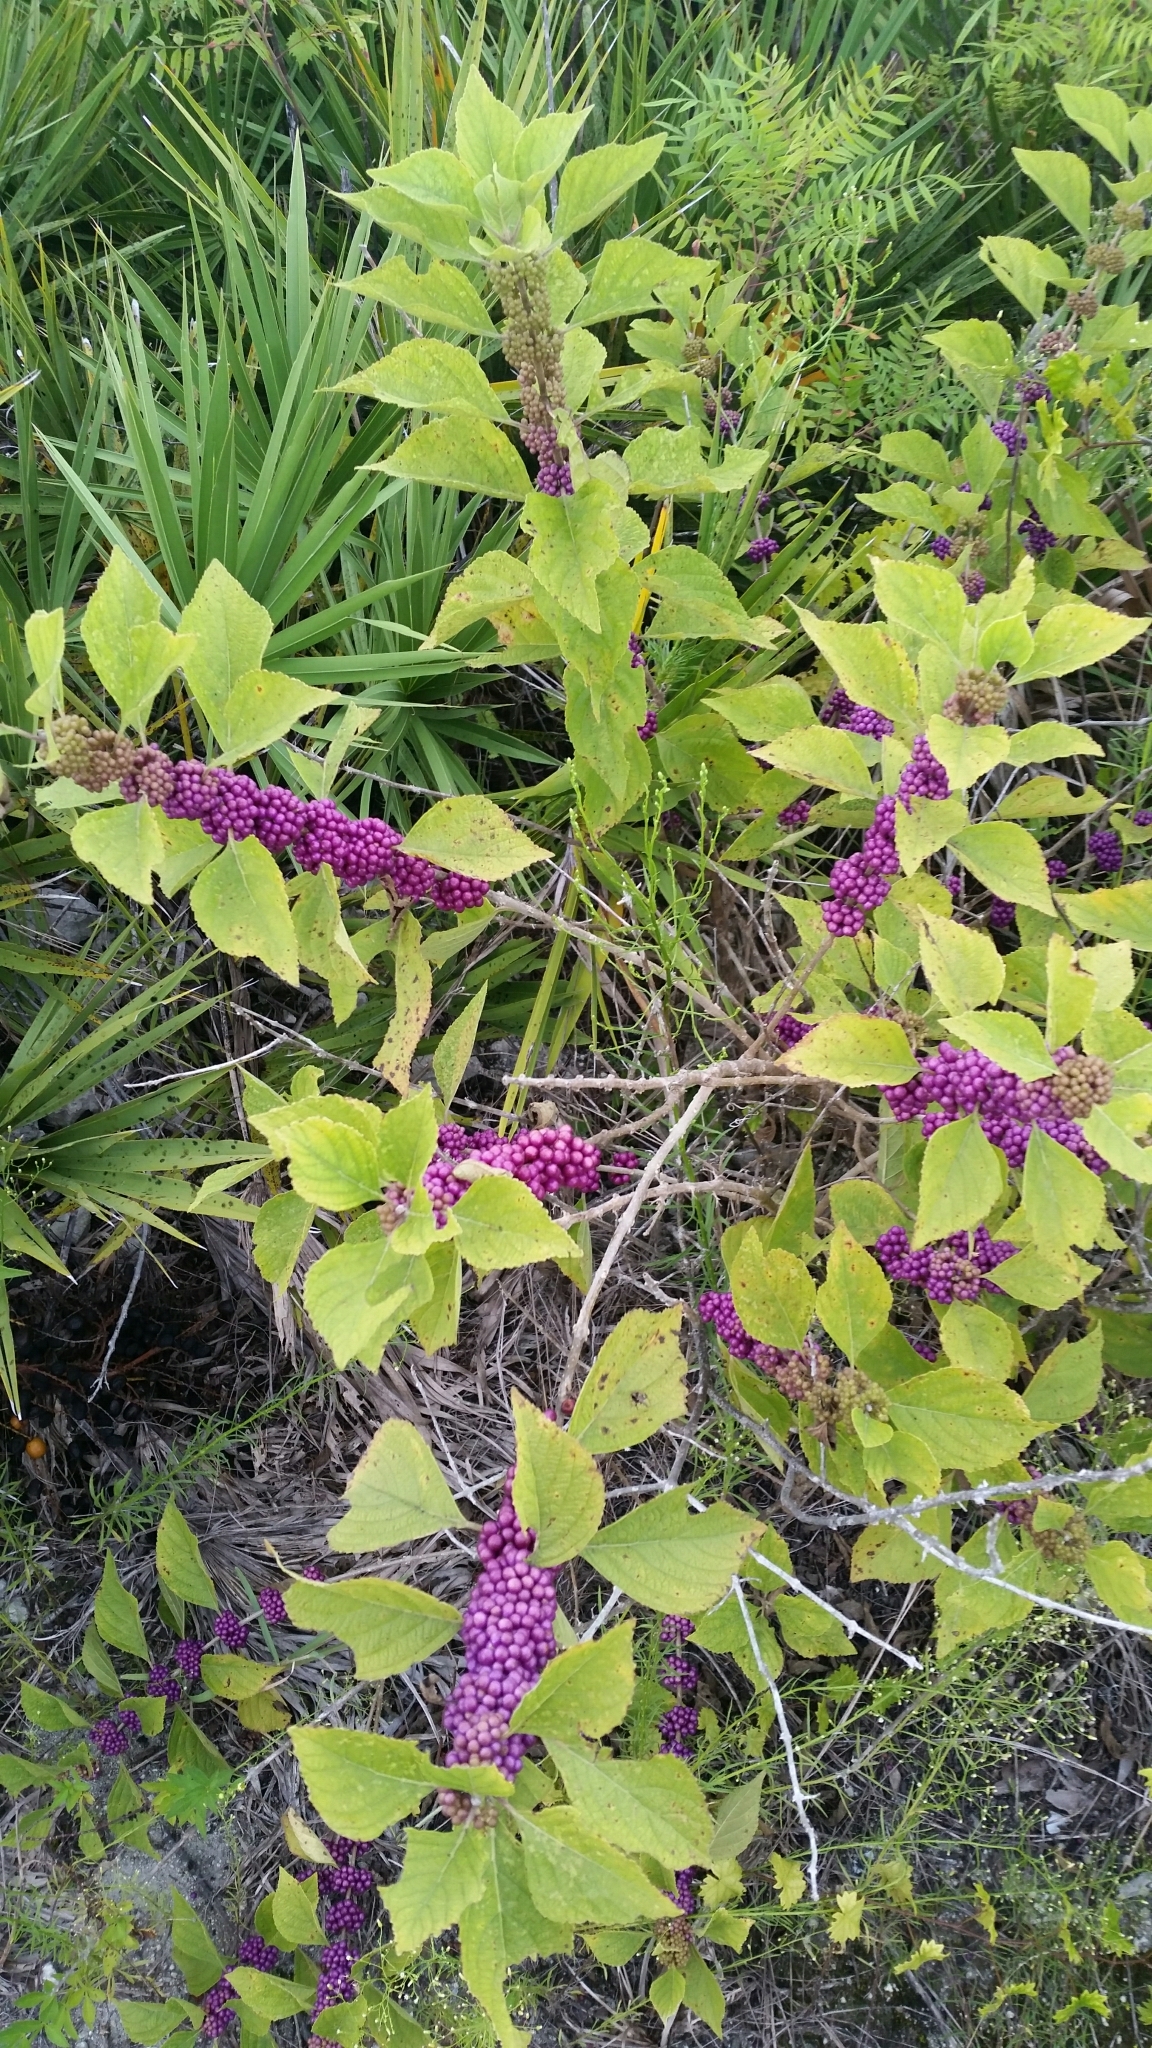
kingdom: Plantae
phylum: Tracheophyta
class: Magnoliopsida
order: Lamiales
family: Lamiaceae
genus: Callicarpa
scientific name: Callicarpa americana
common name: American beautyberry
